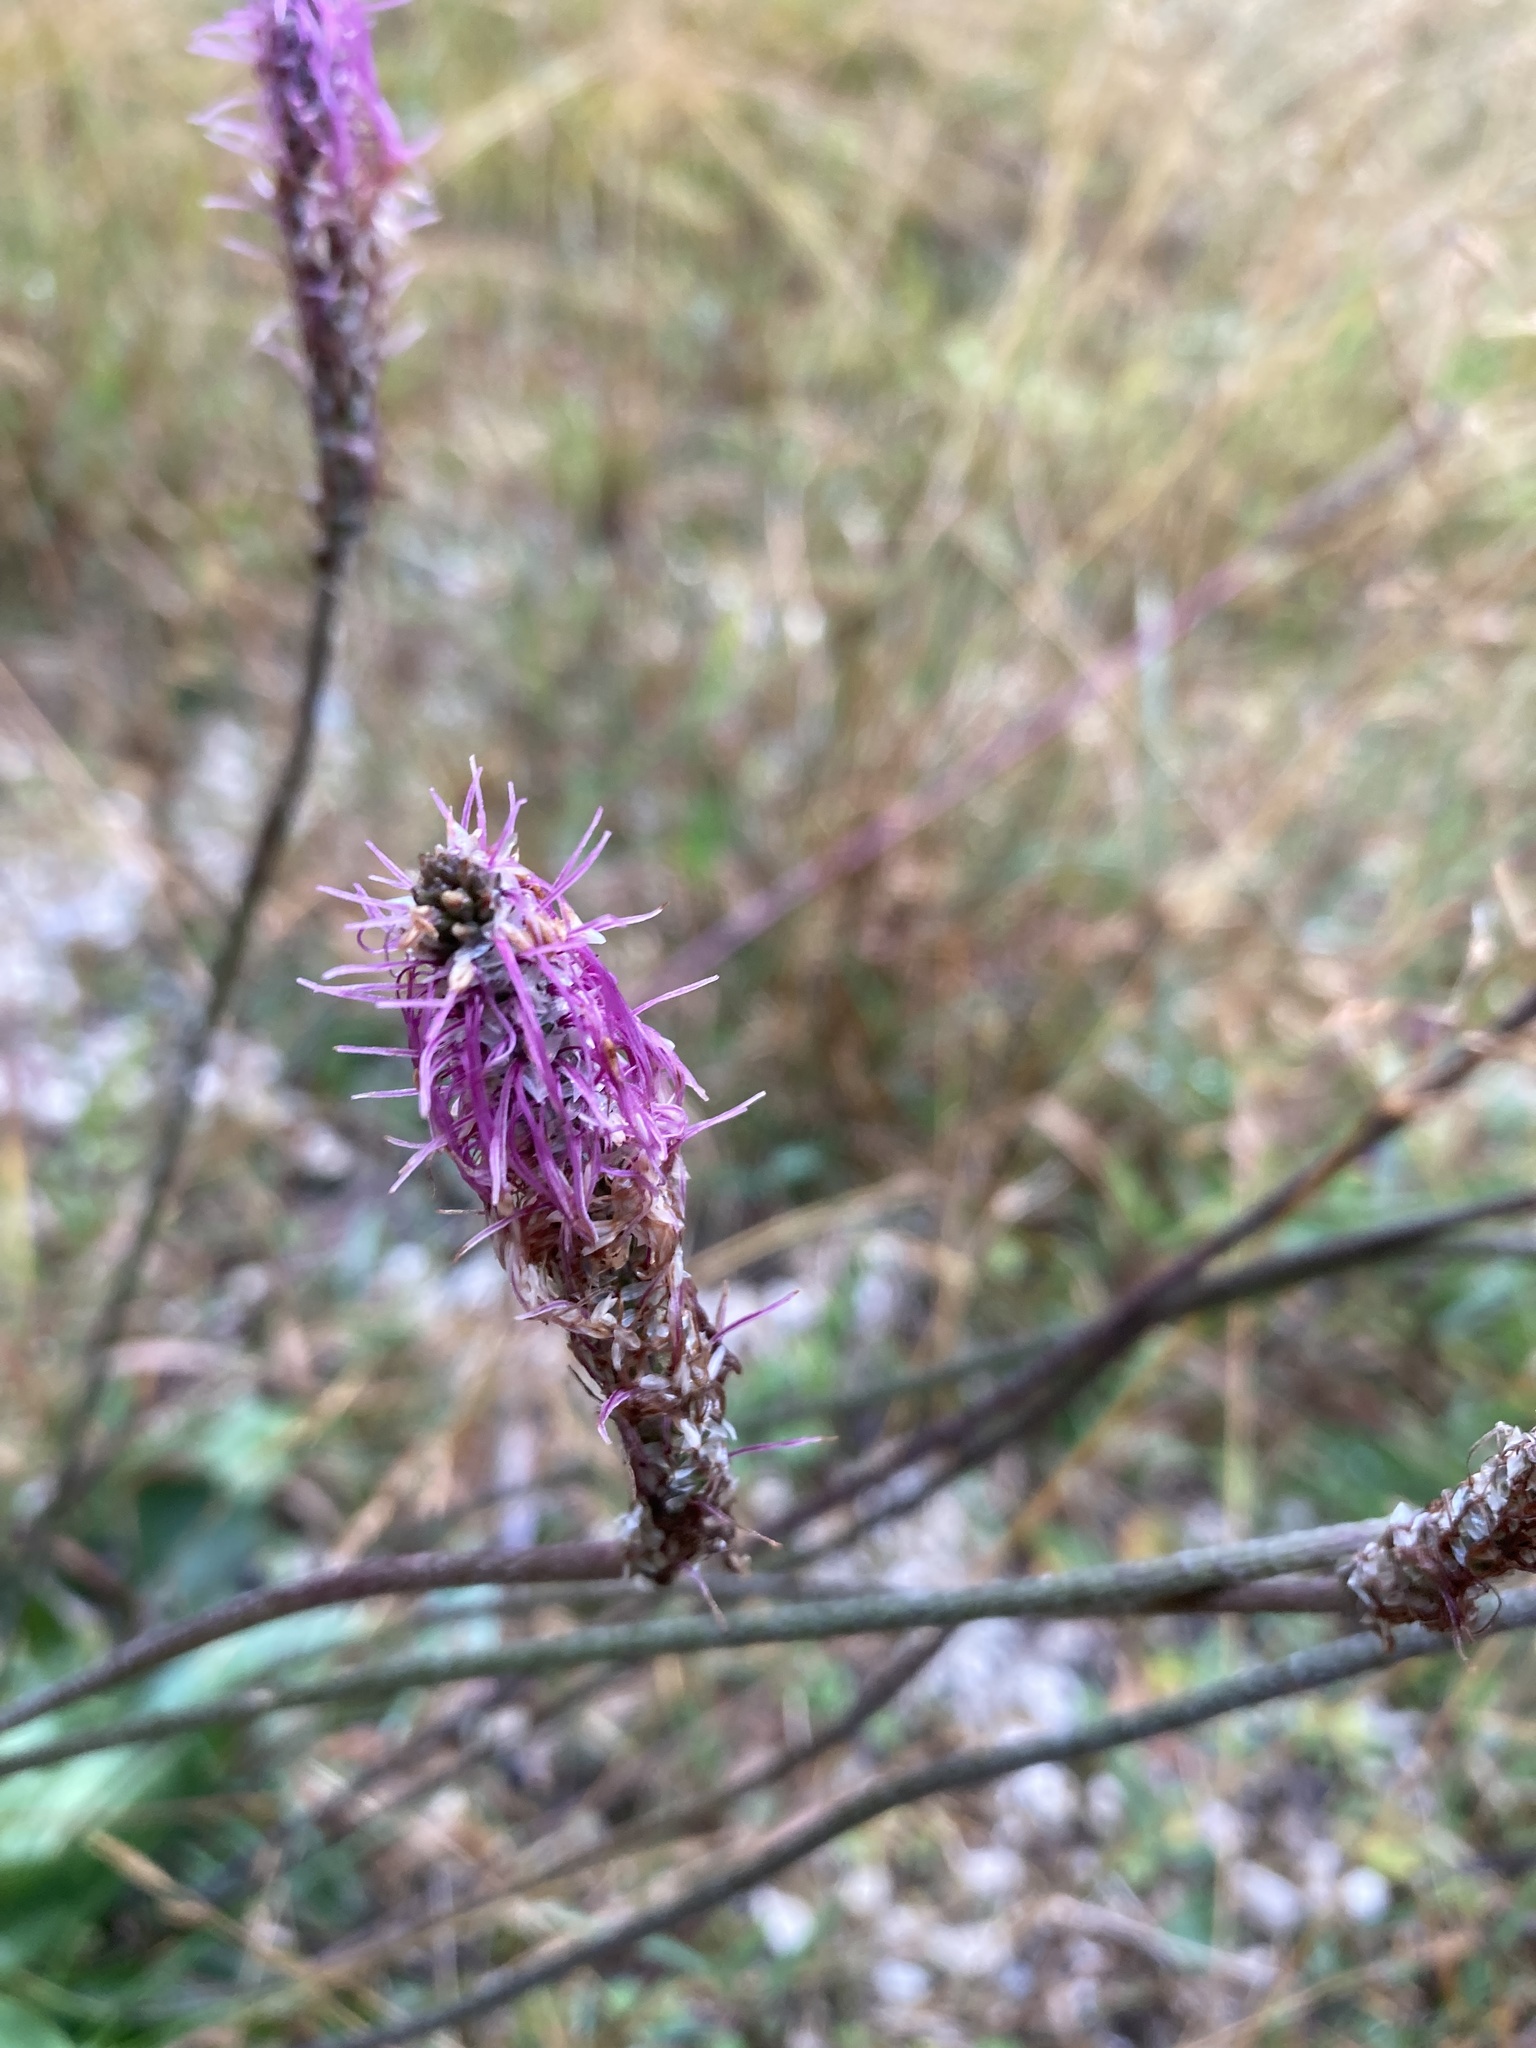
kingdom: Plantae
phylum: Tracheophyta
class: Magnoliopsida
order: Lamiales
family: Plantaginaceae
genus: Plantago
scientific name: Plantago media
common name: Hoary plantain
